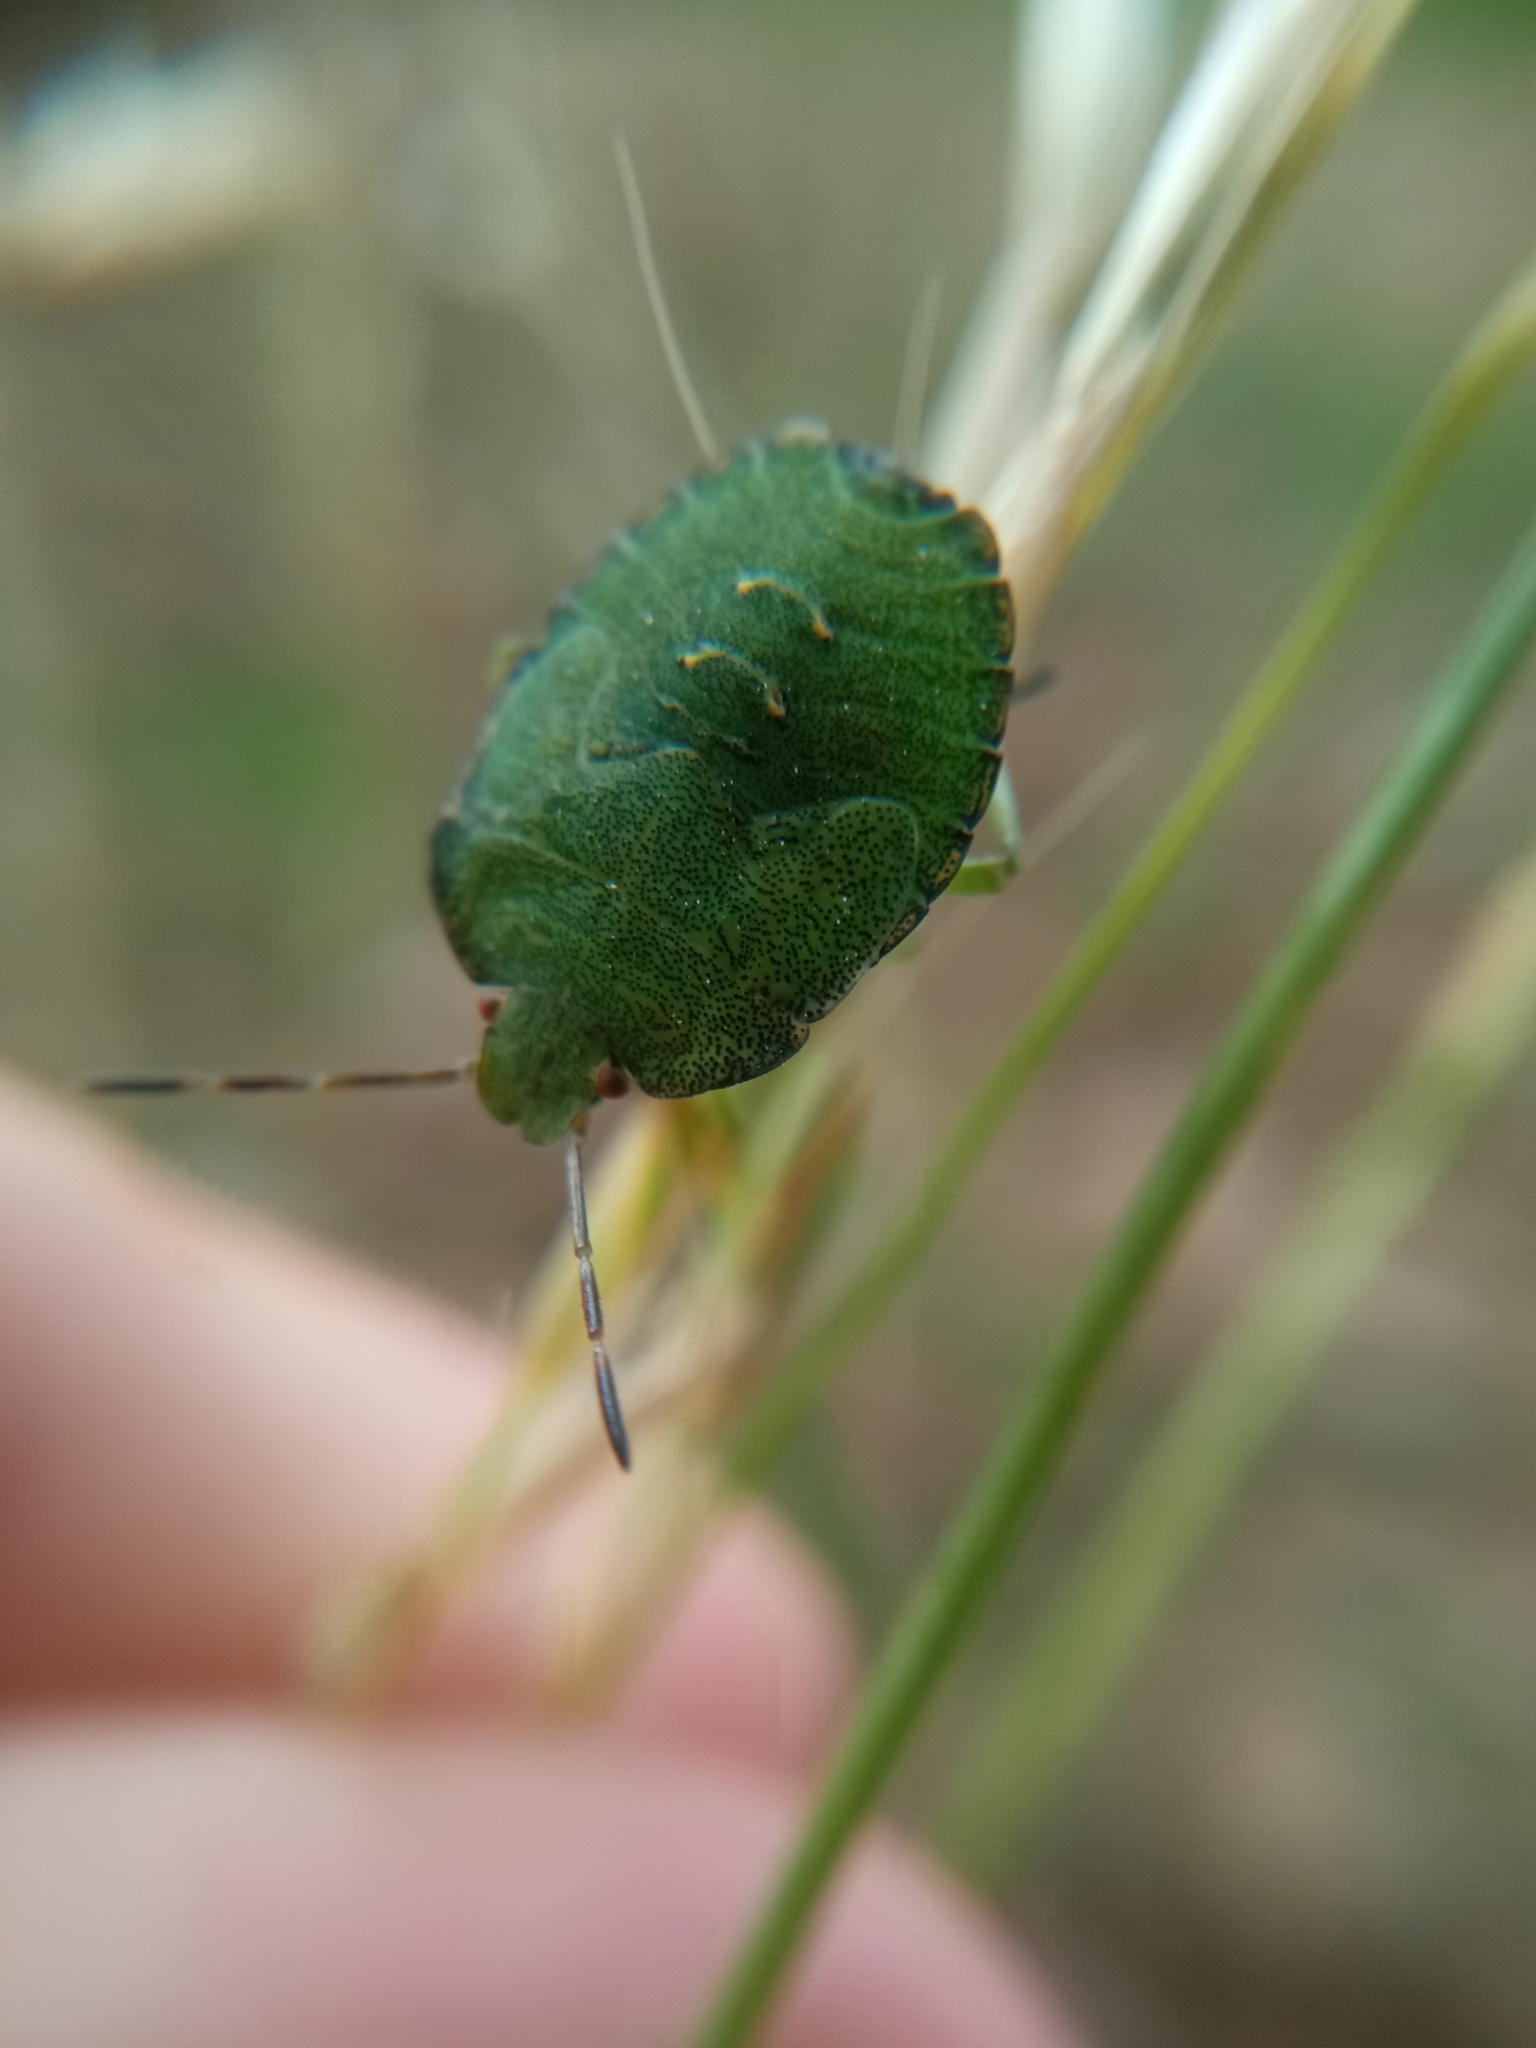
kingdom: Animalia
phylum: Arthropoda
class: Insecta
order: Hemiptera
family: Pentatomidae
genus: Palomena
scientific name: Palomena prasina
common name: Green shieldbug
